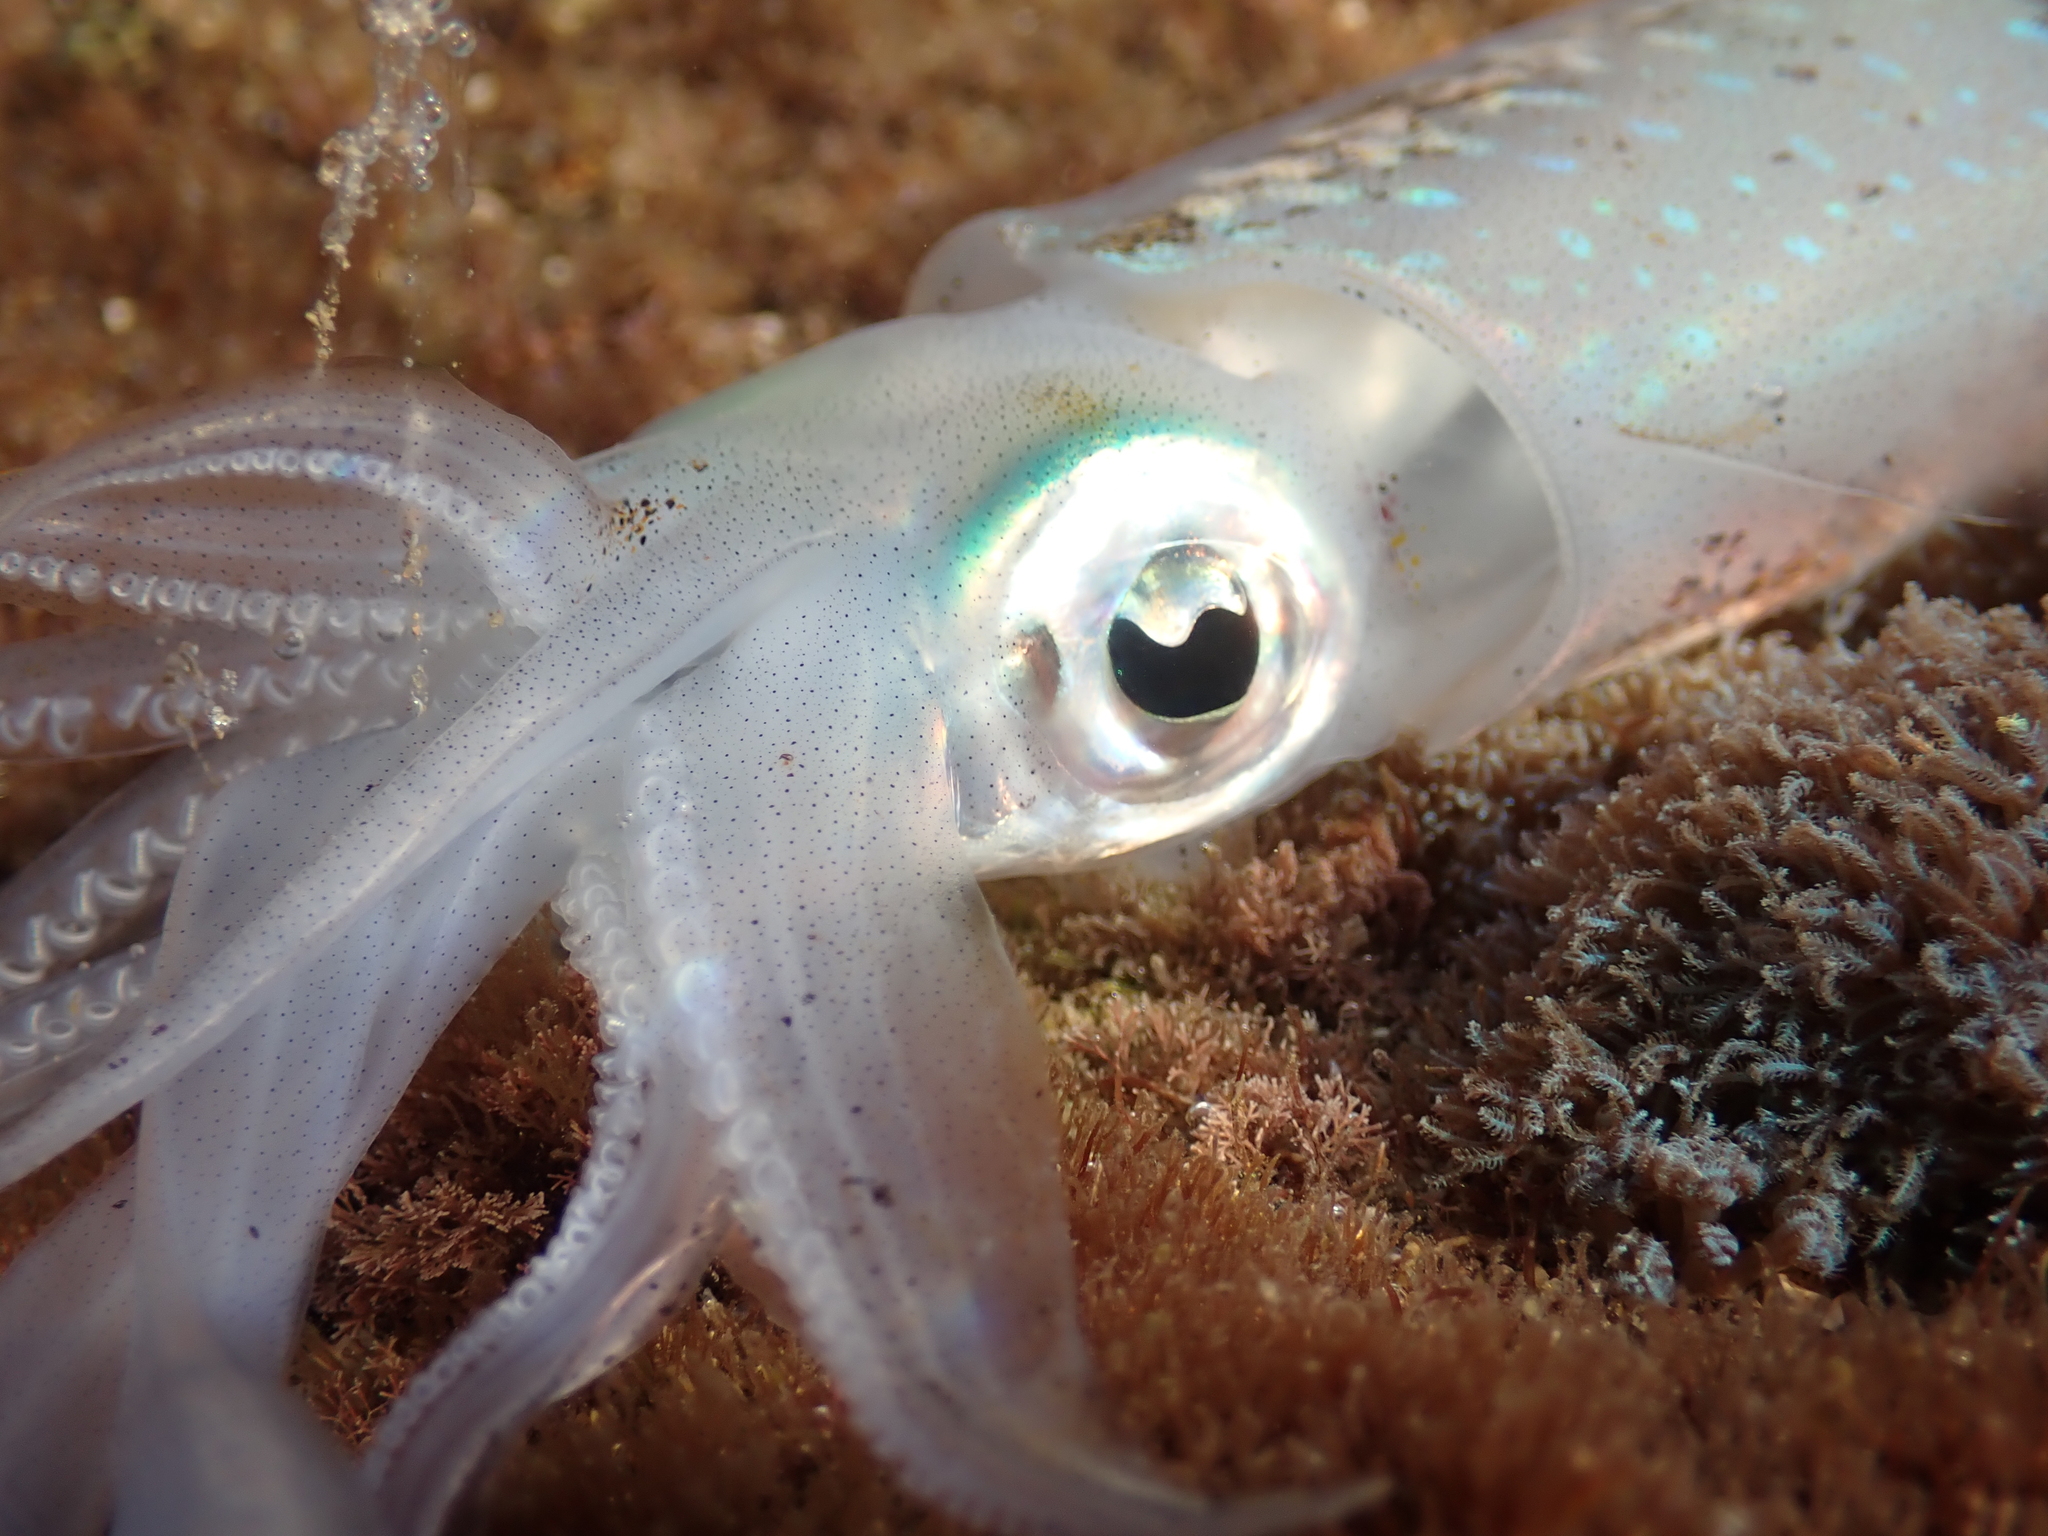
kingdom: Animalia
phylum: Mollusca
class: Cephalopoda
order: Myopsida
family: Loliginidae
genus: Sepioteuthis
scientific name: Sepioteuthis lessoniana
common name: Bigfin reef squid
